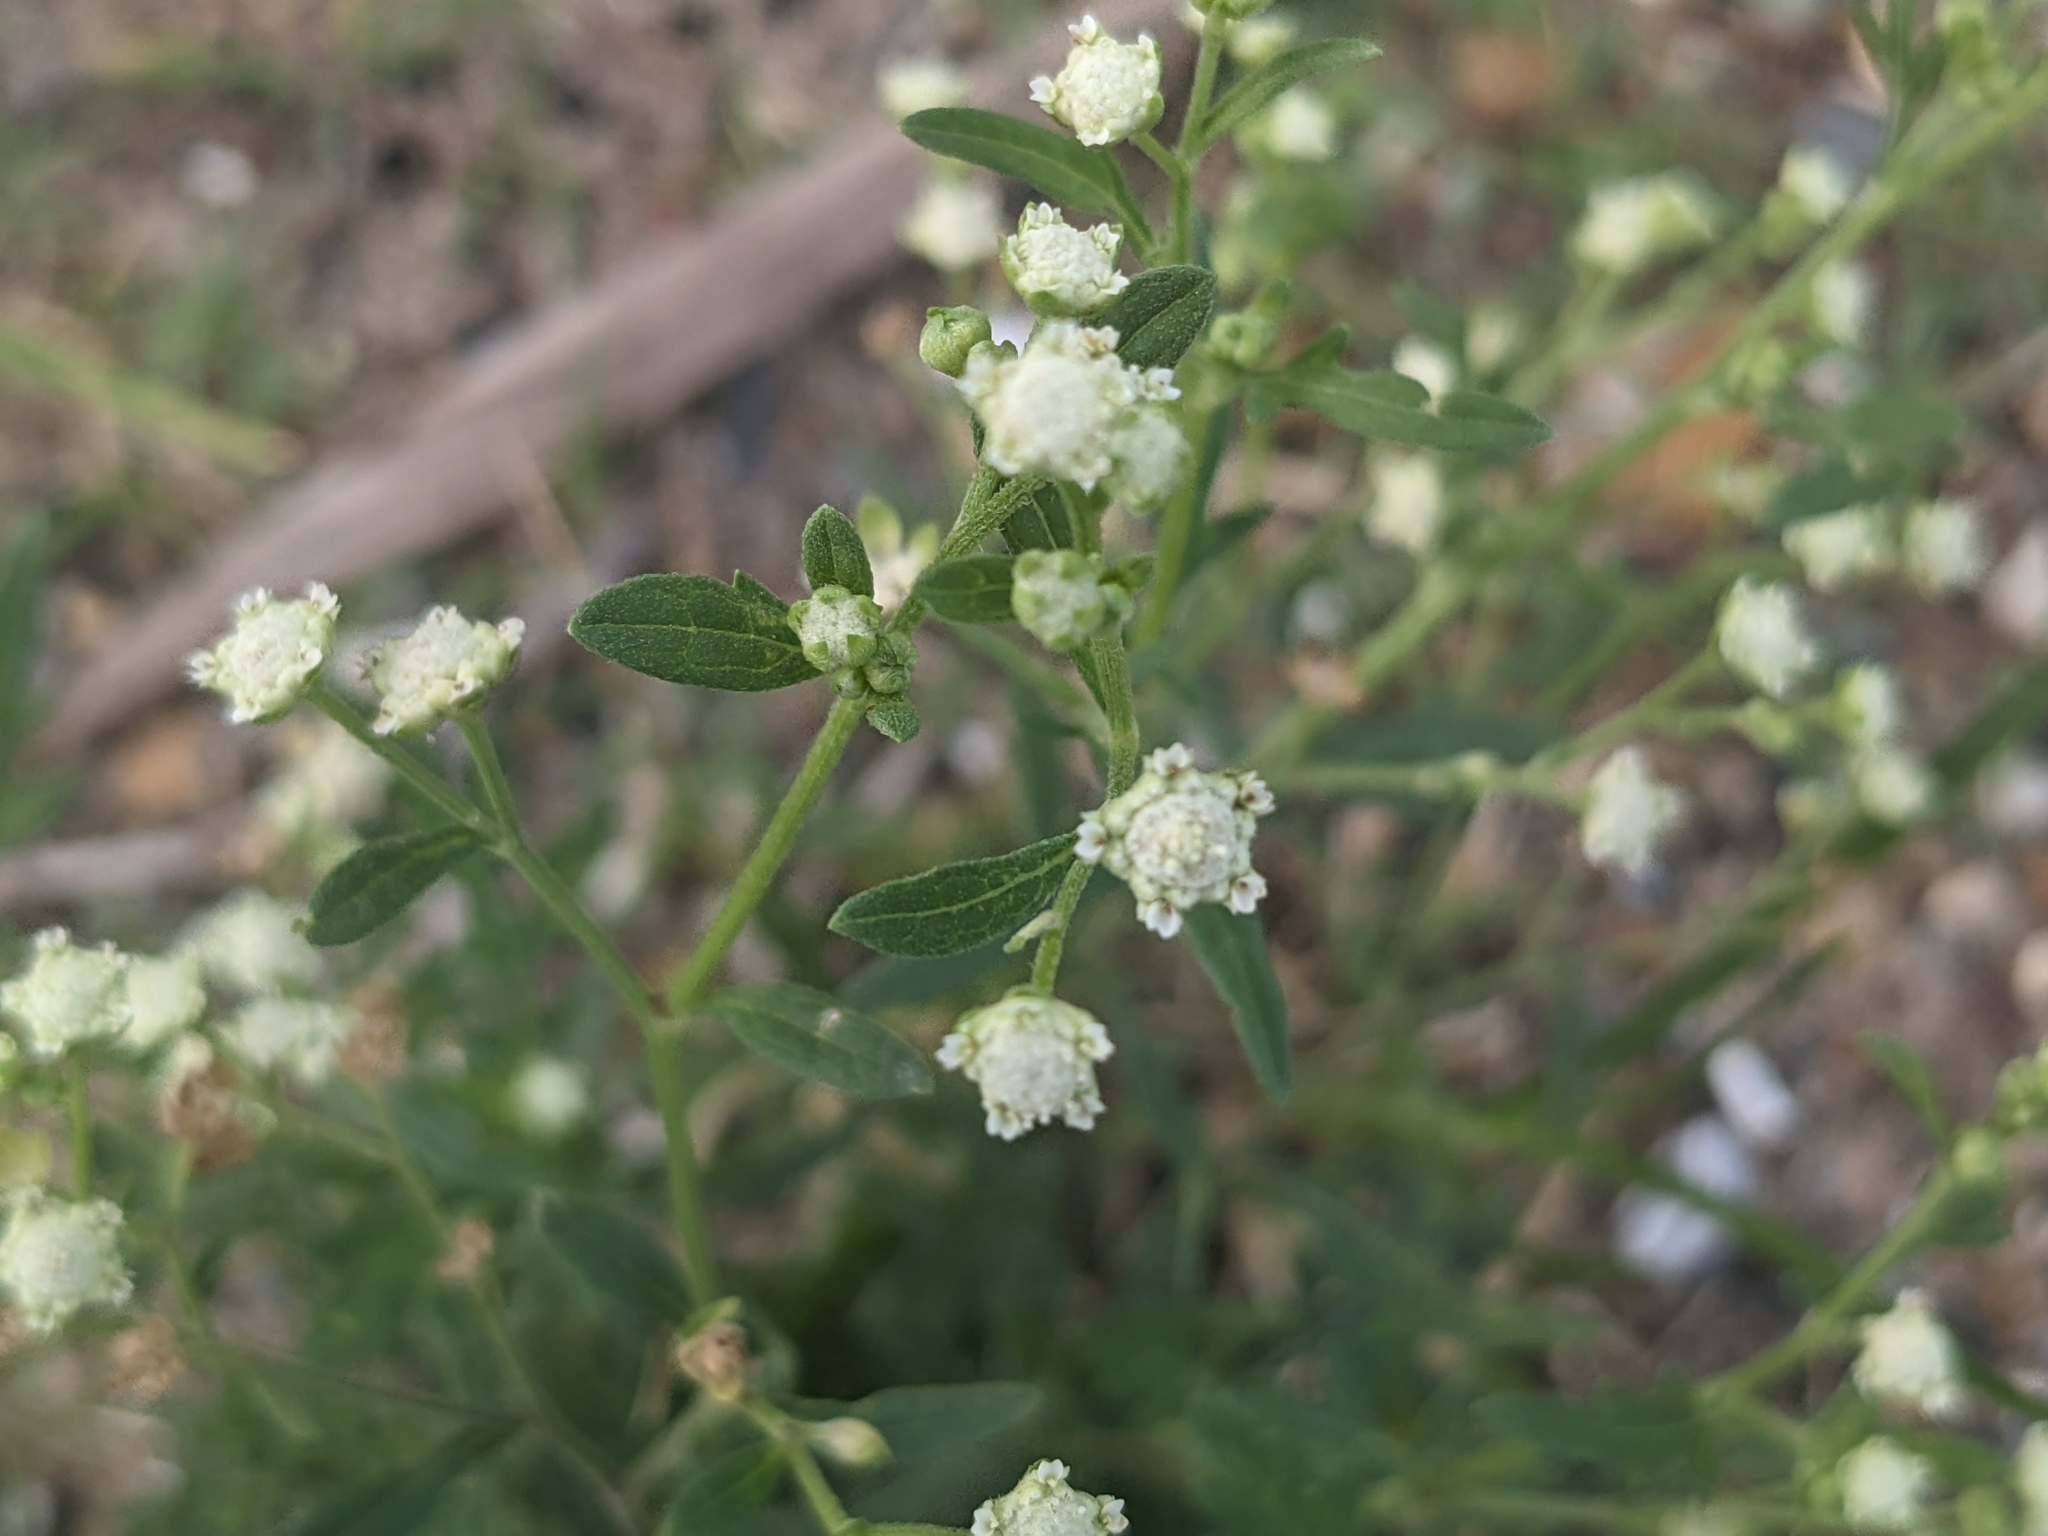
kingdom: Plantae
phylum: Tracheophyta
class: Magnoliopsida
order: Asterales
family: Asteraceae
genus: Parthenium
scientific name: Parthenium hysterophorus
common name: Santa maria feverfew
